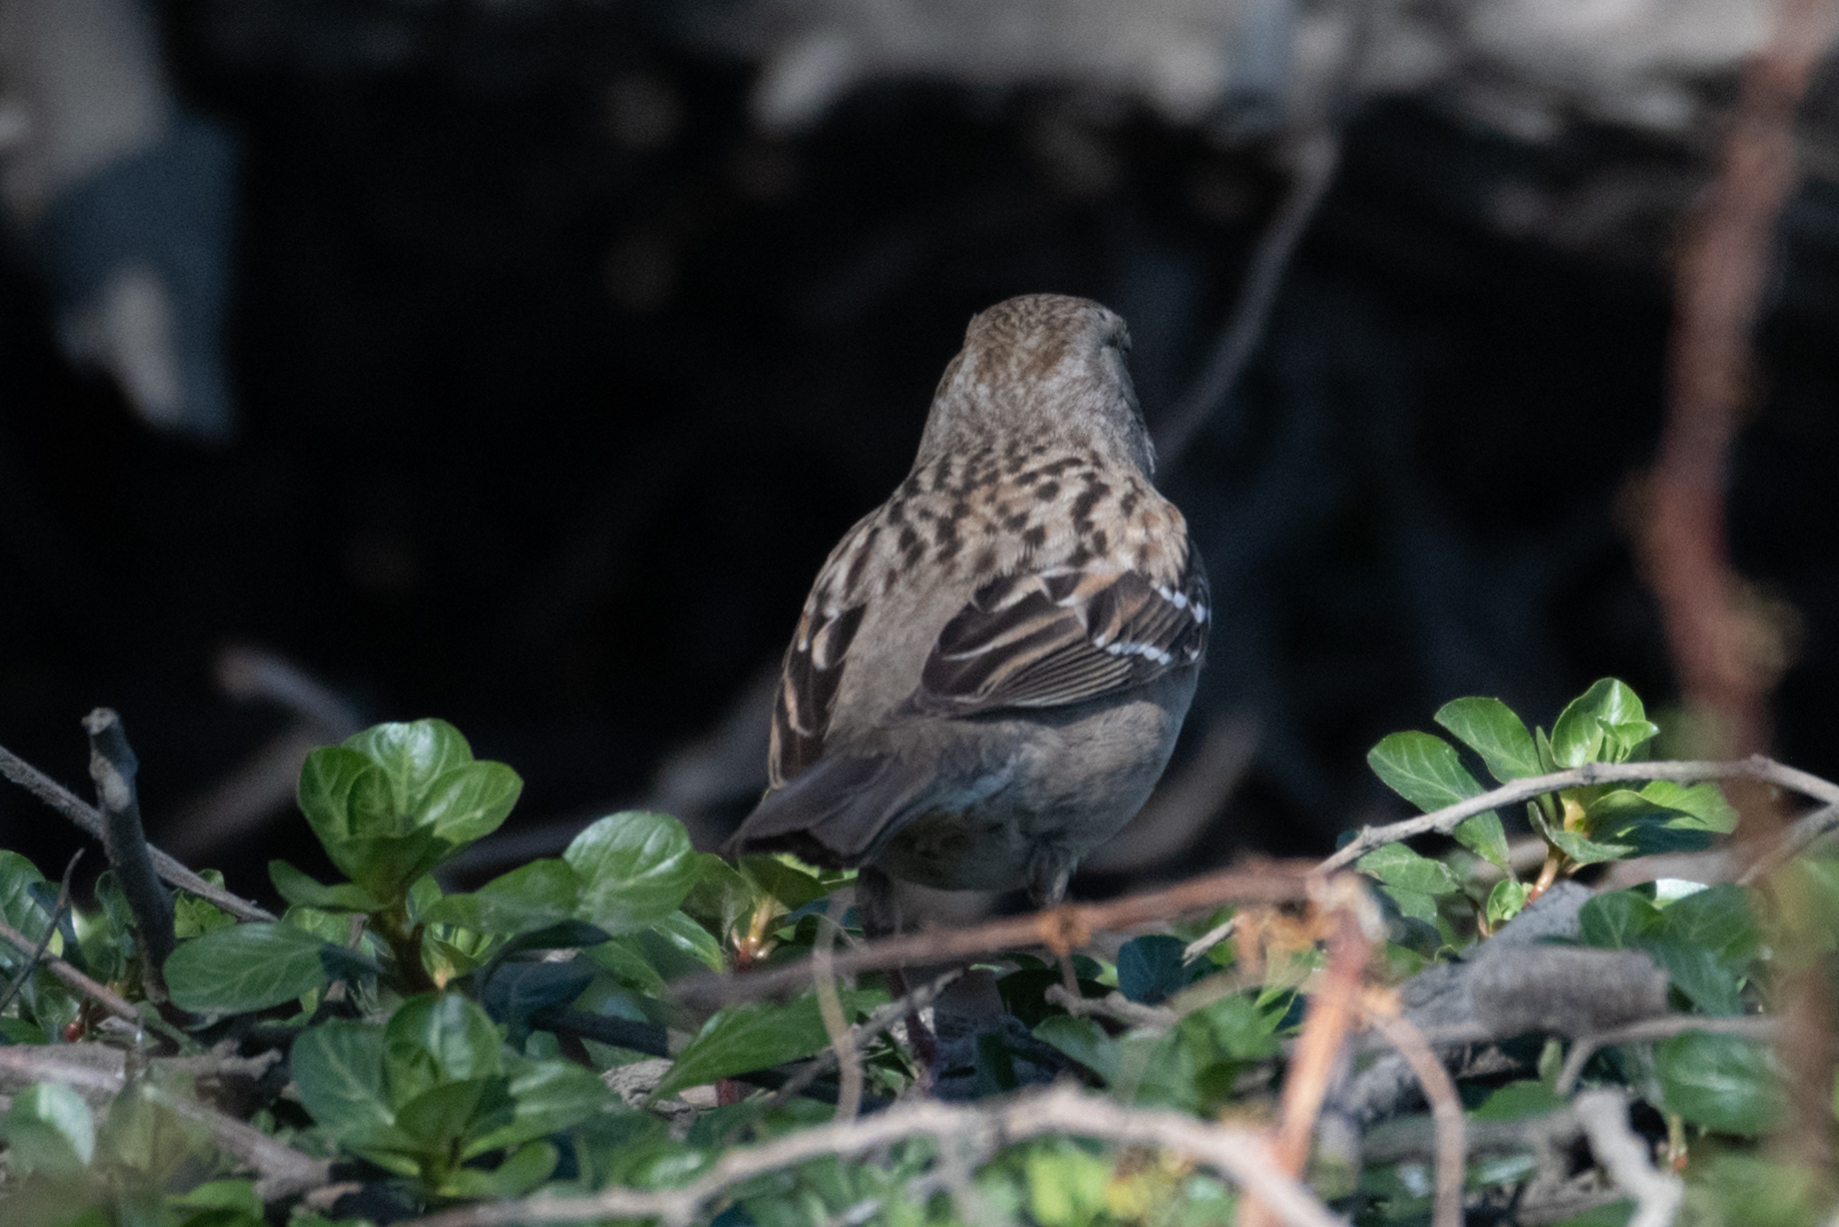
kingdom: Animalia
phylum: Chordata
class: Aves
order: Passeriformes
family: Passerellidae
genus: Zonotrichia
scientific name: Zonotrichia atricapilla
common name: Golden-crowned sparrow
